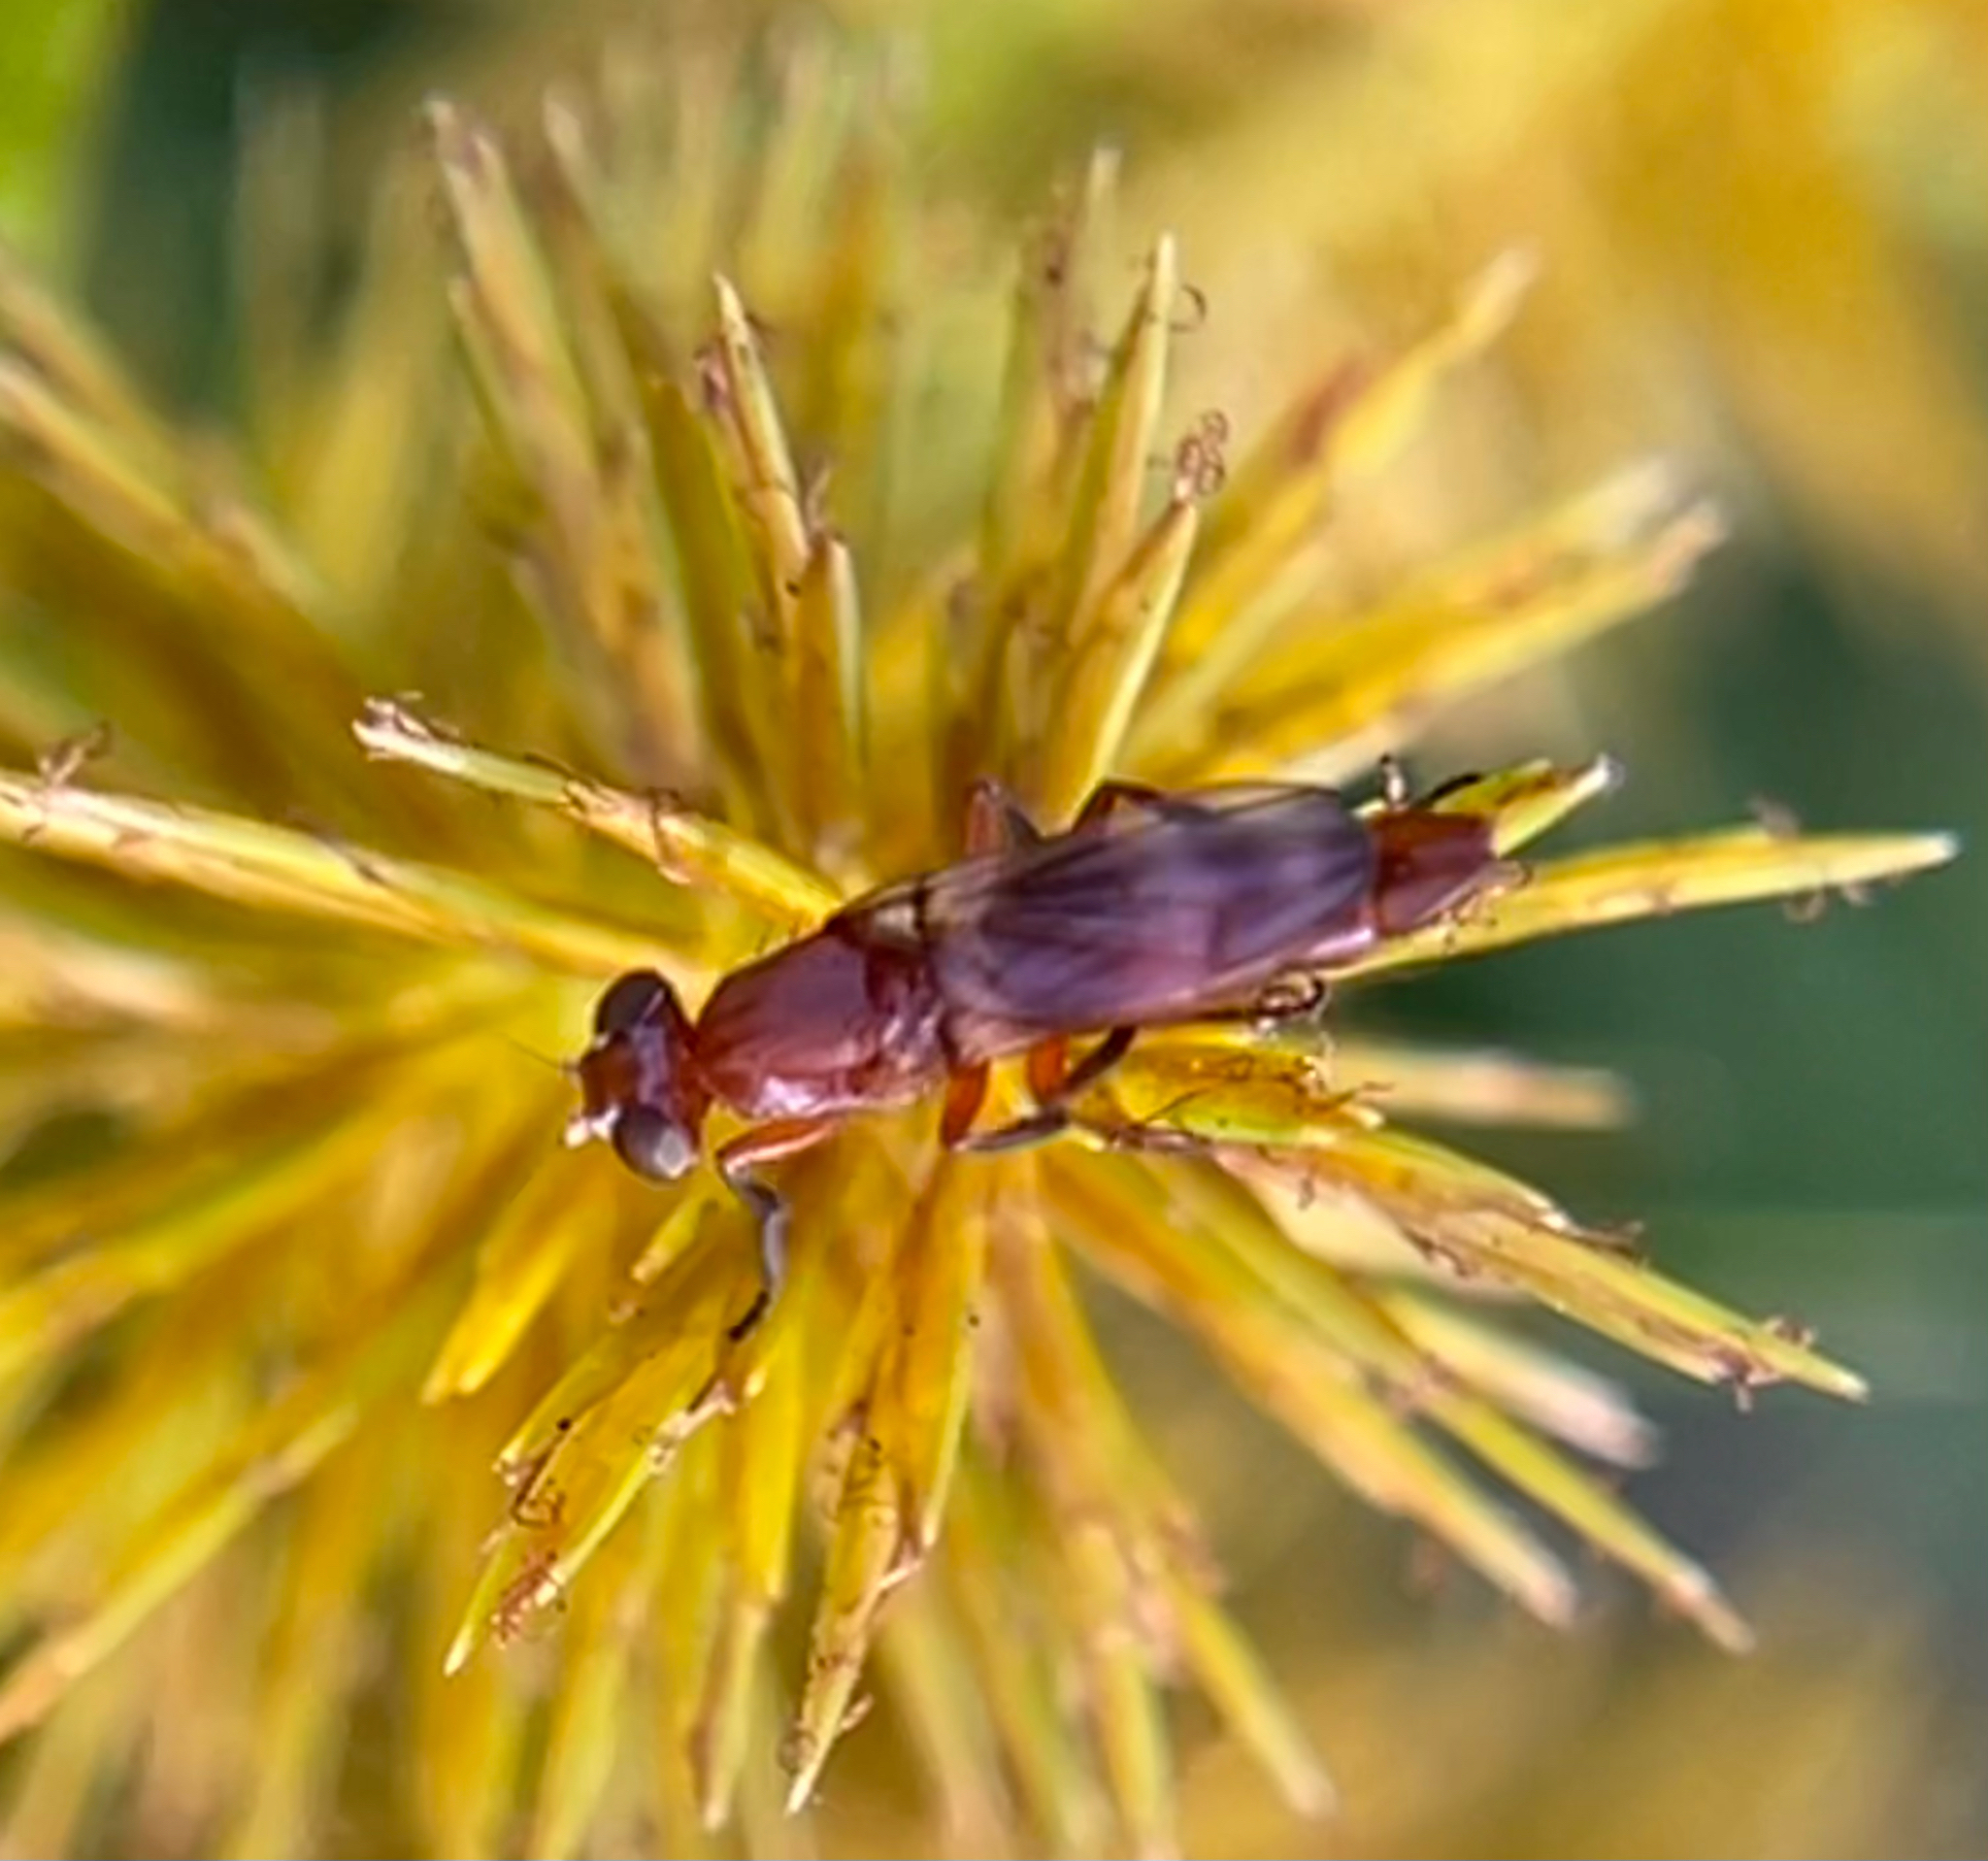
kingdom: Animalia
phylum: Arthropoda
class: Insecta
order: Diptera
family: Ulidiidae
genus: Zacompsia
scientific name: Zacompsia fulva
